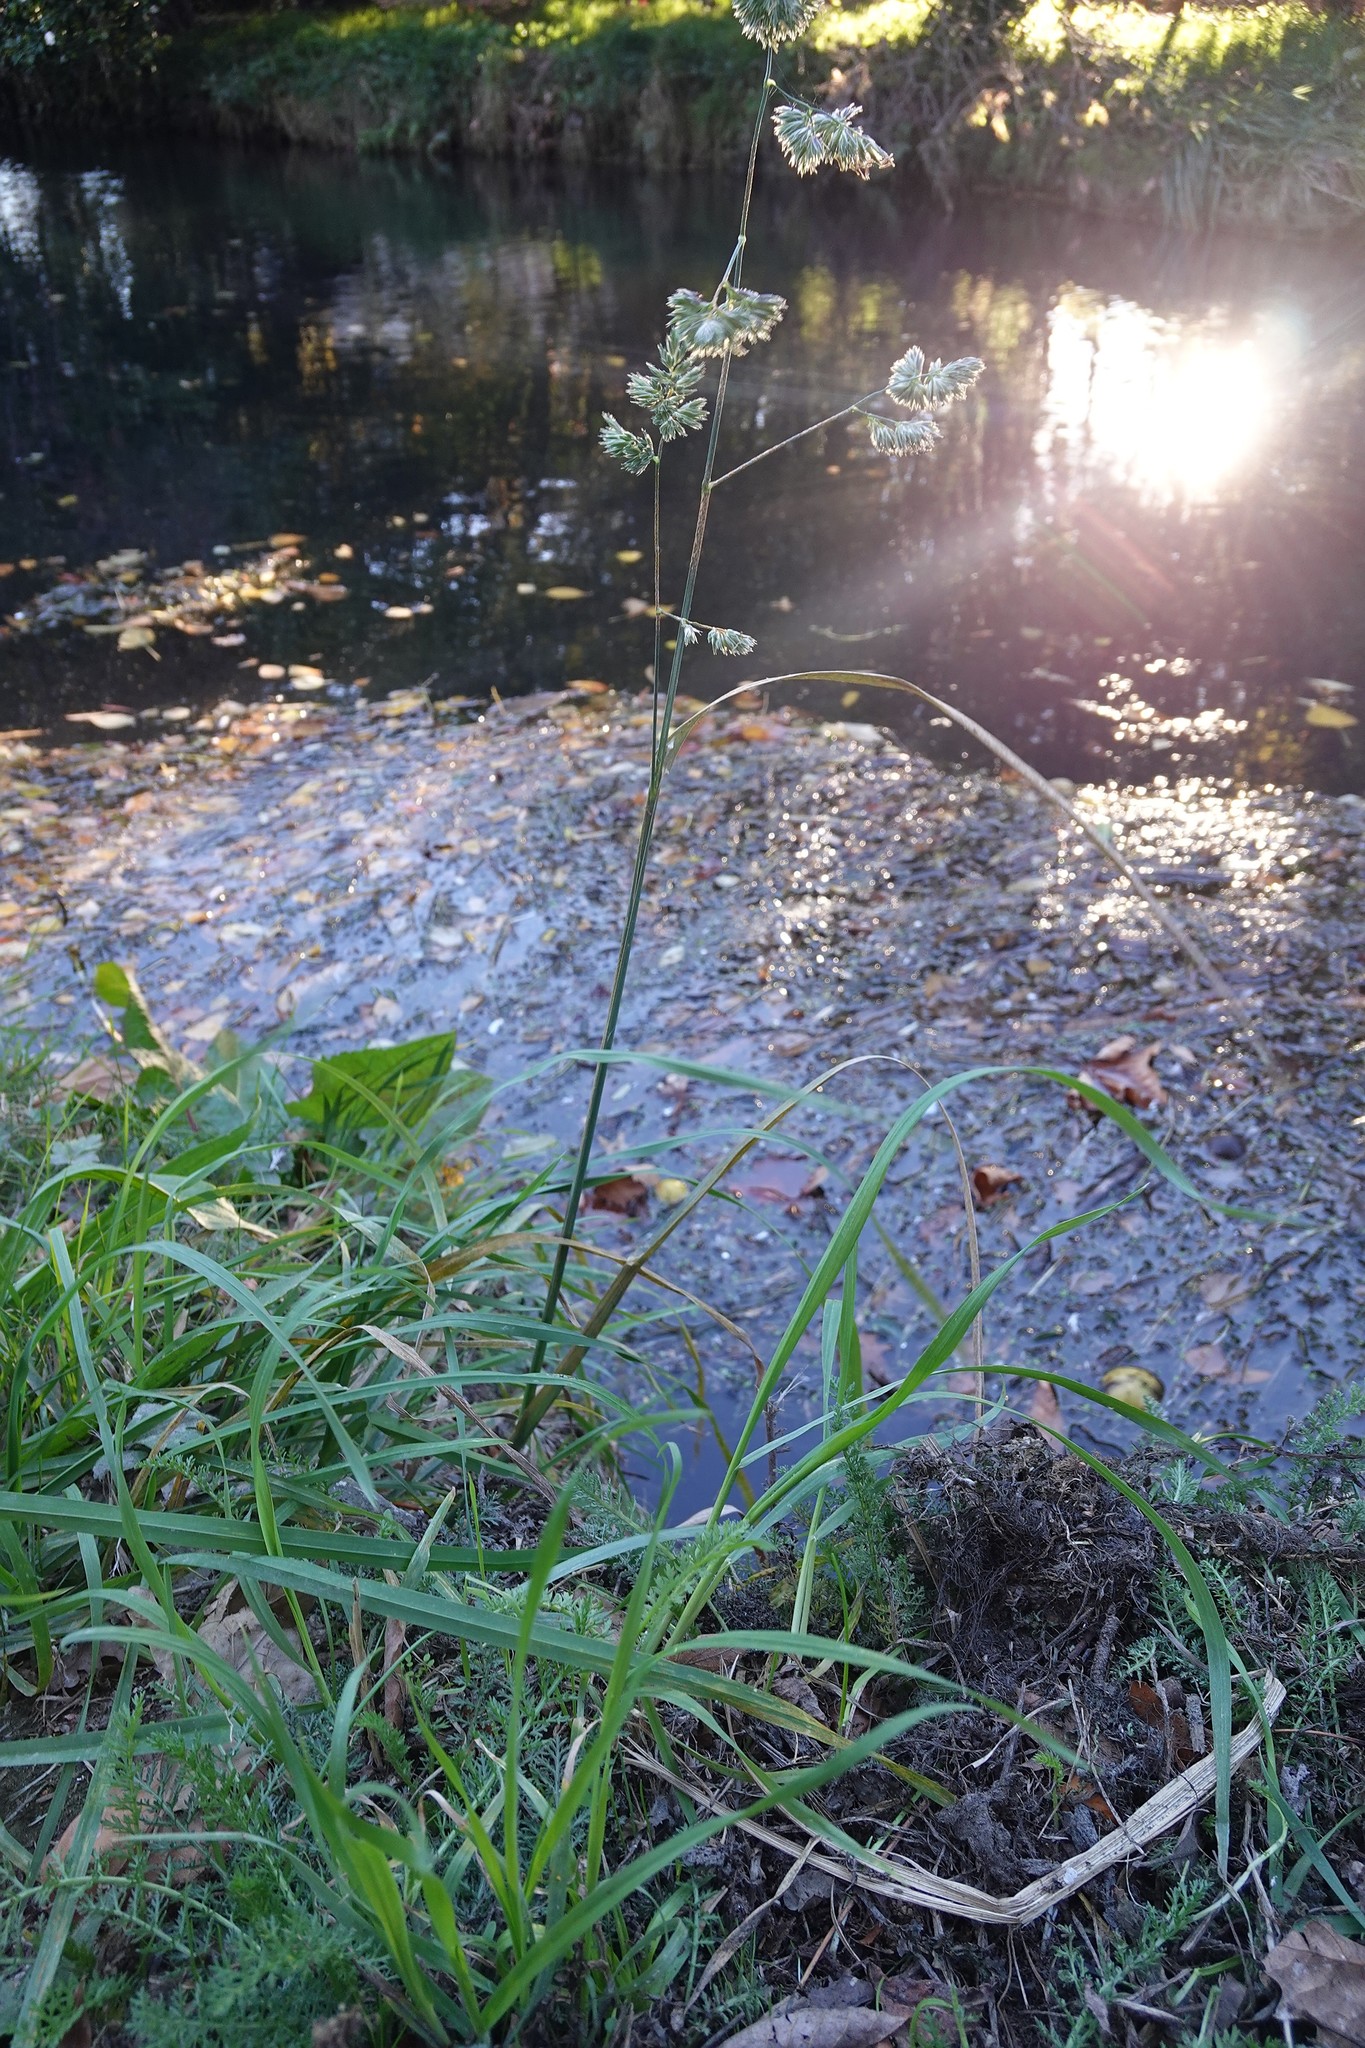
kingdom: Plantae
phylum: Tracheophyta
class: Liliopsida
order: Poales
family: Poaceae
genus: Dactylis
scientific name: Dactylis glomerata
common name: Orchardgrass
